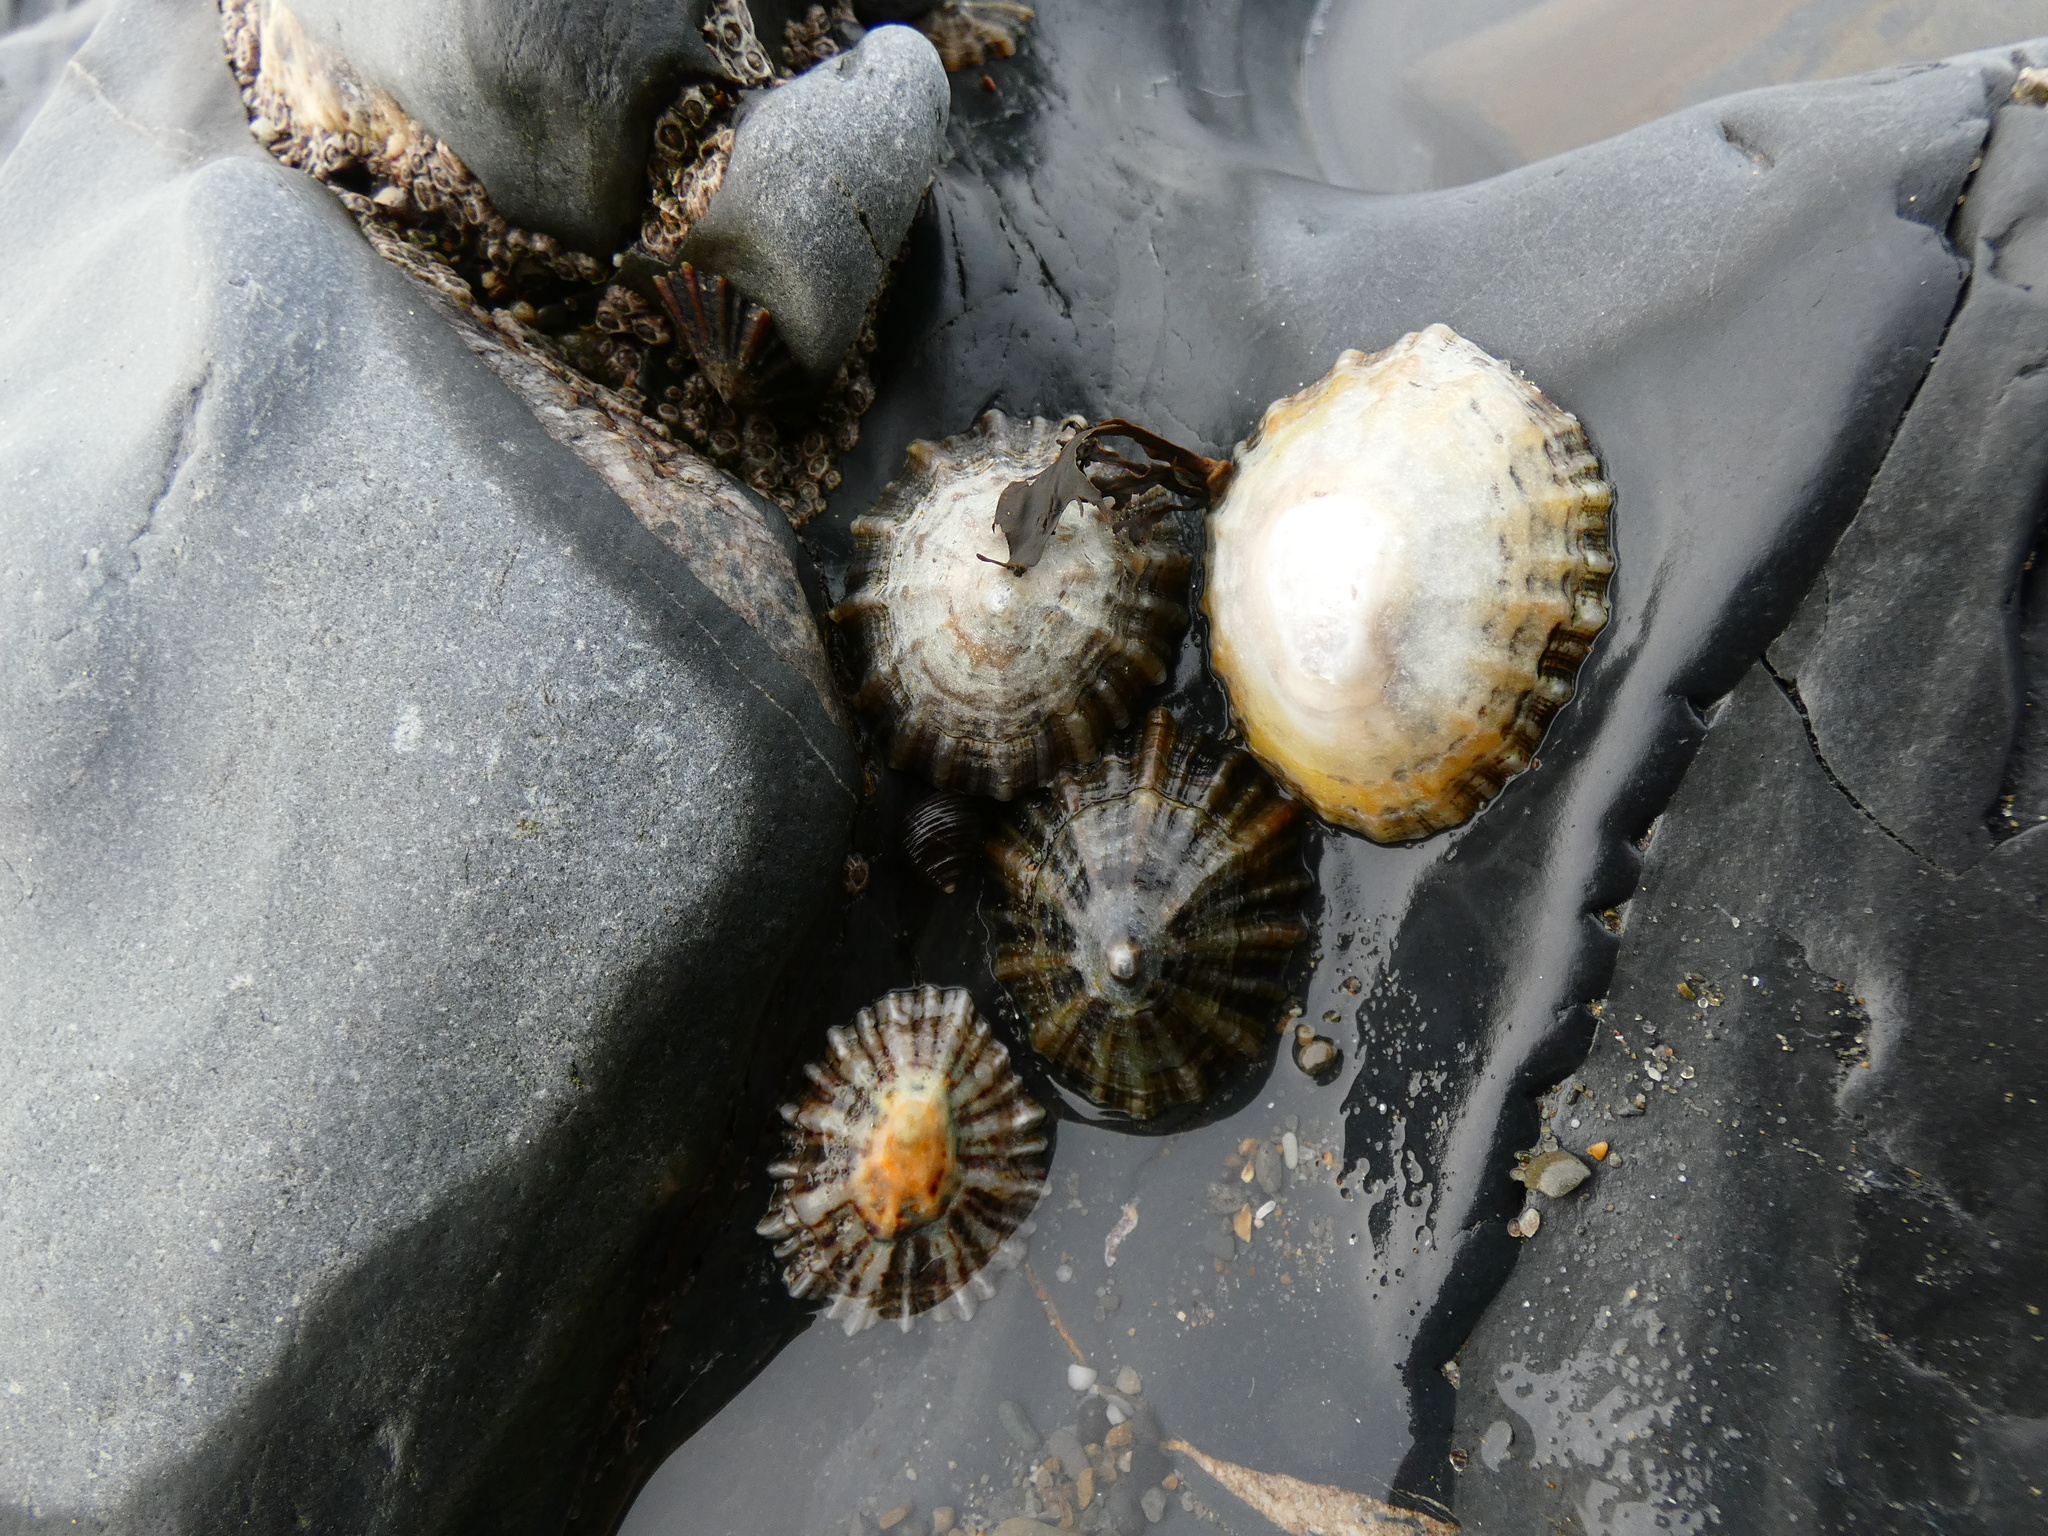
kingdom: Animalia
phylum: Mollusca
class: Gastropoda
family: Patellidae
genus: Patella
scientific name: Patella
